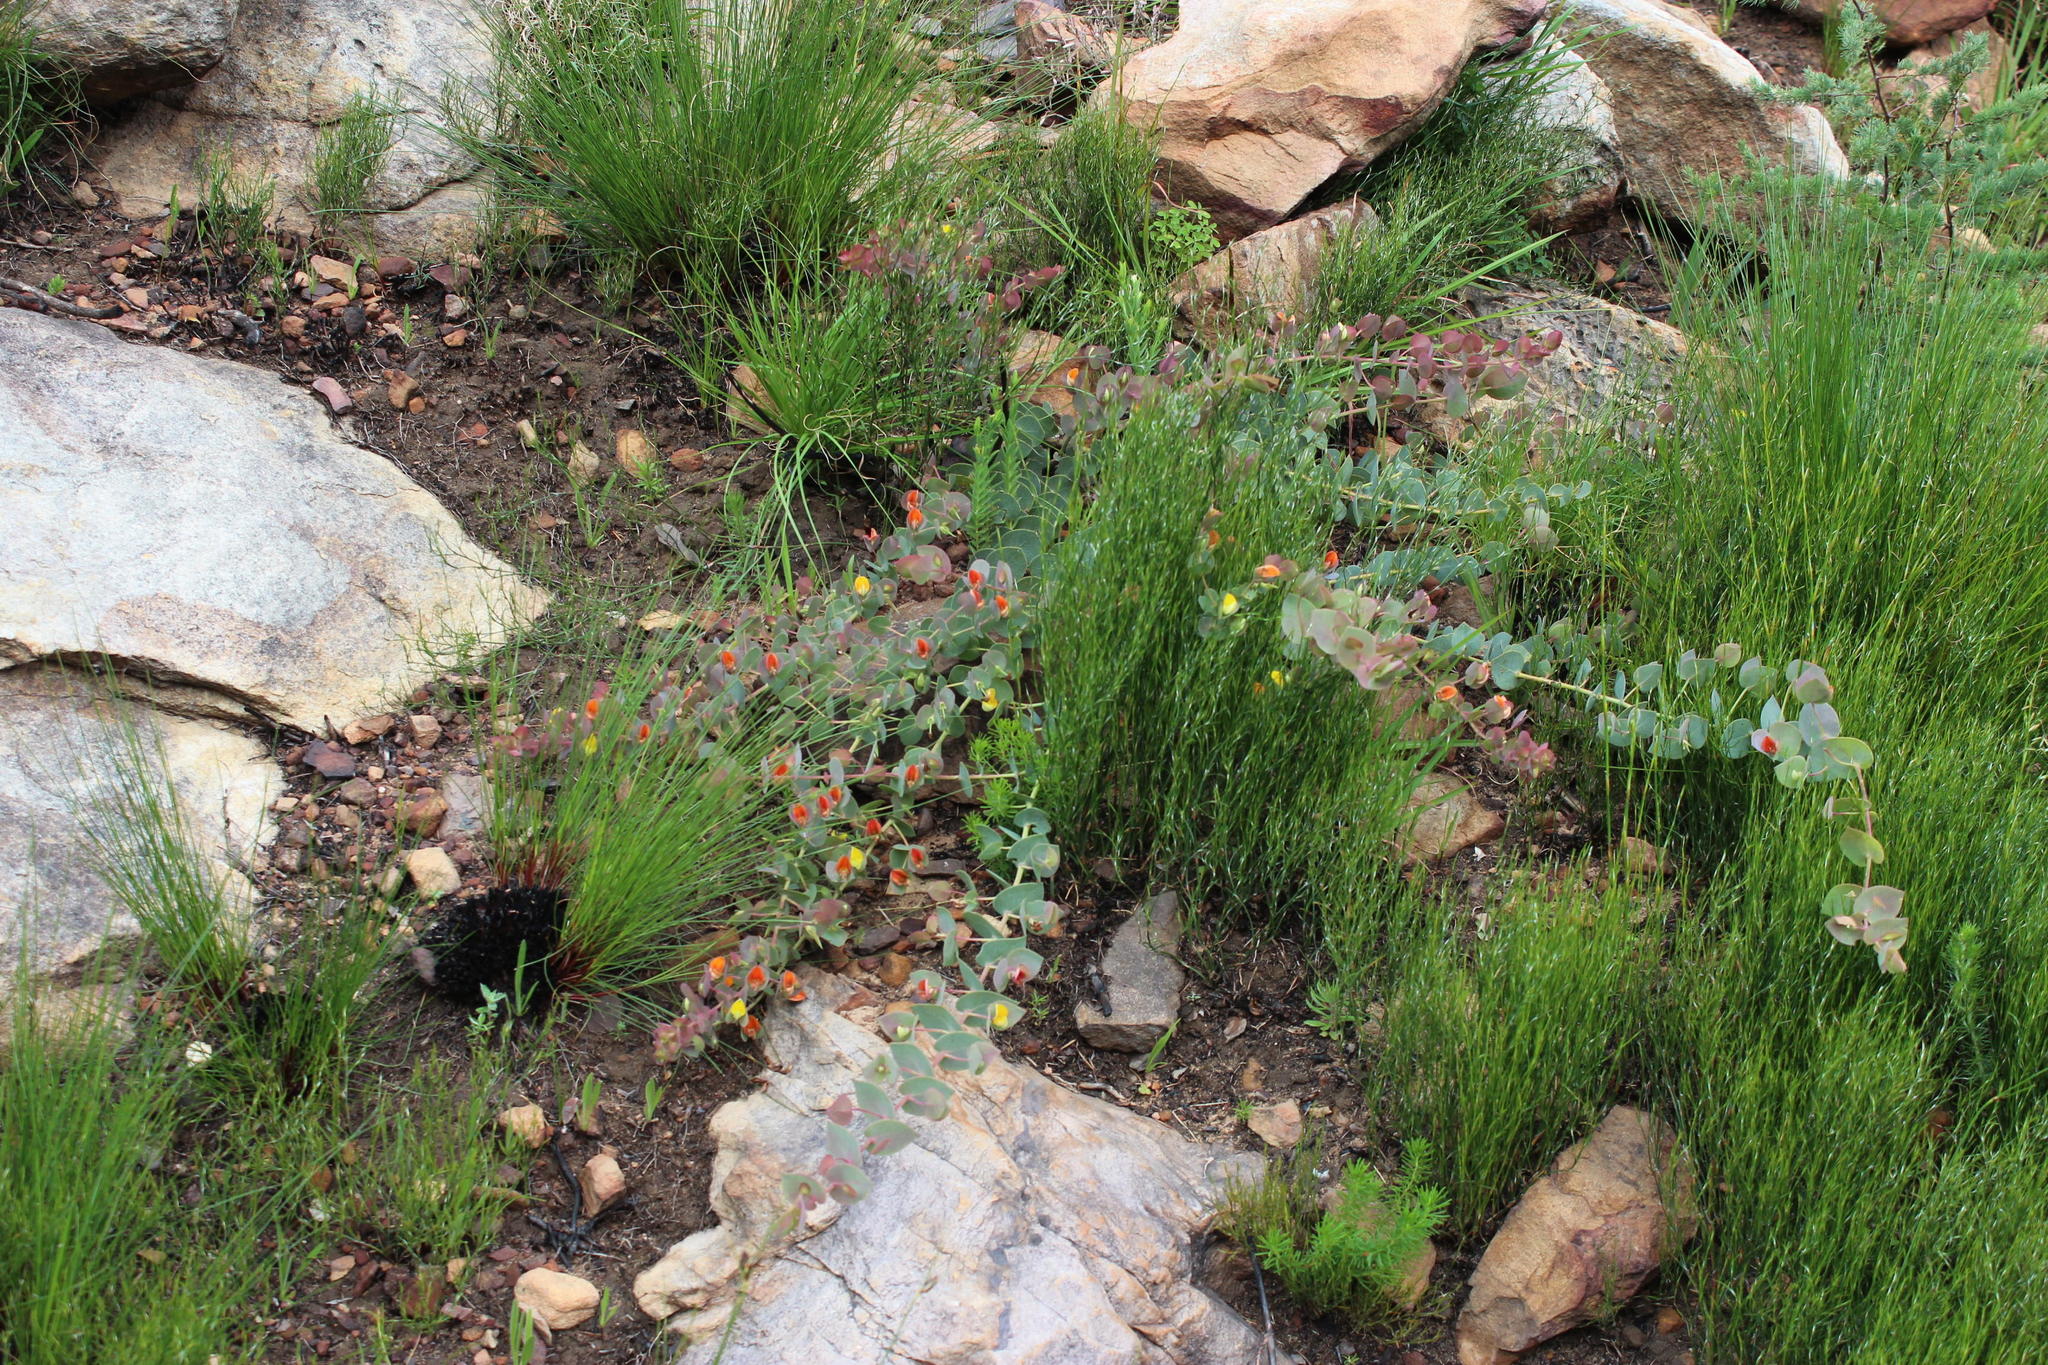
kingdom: Plantae
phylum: Tracheophyta
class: Magnoliopsida
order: Fabales
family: Fabaceae
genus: Rafnia
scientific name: Rafnia acuminata
